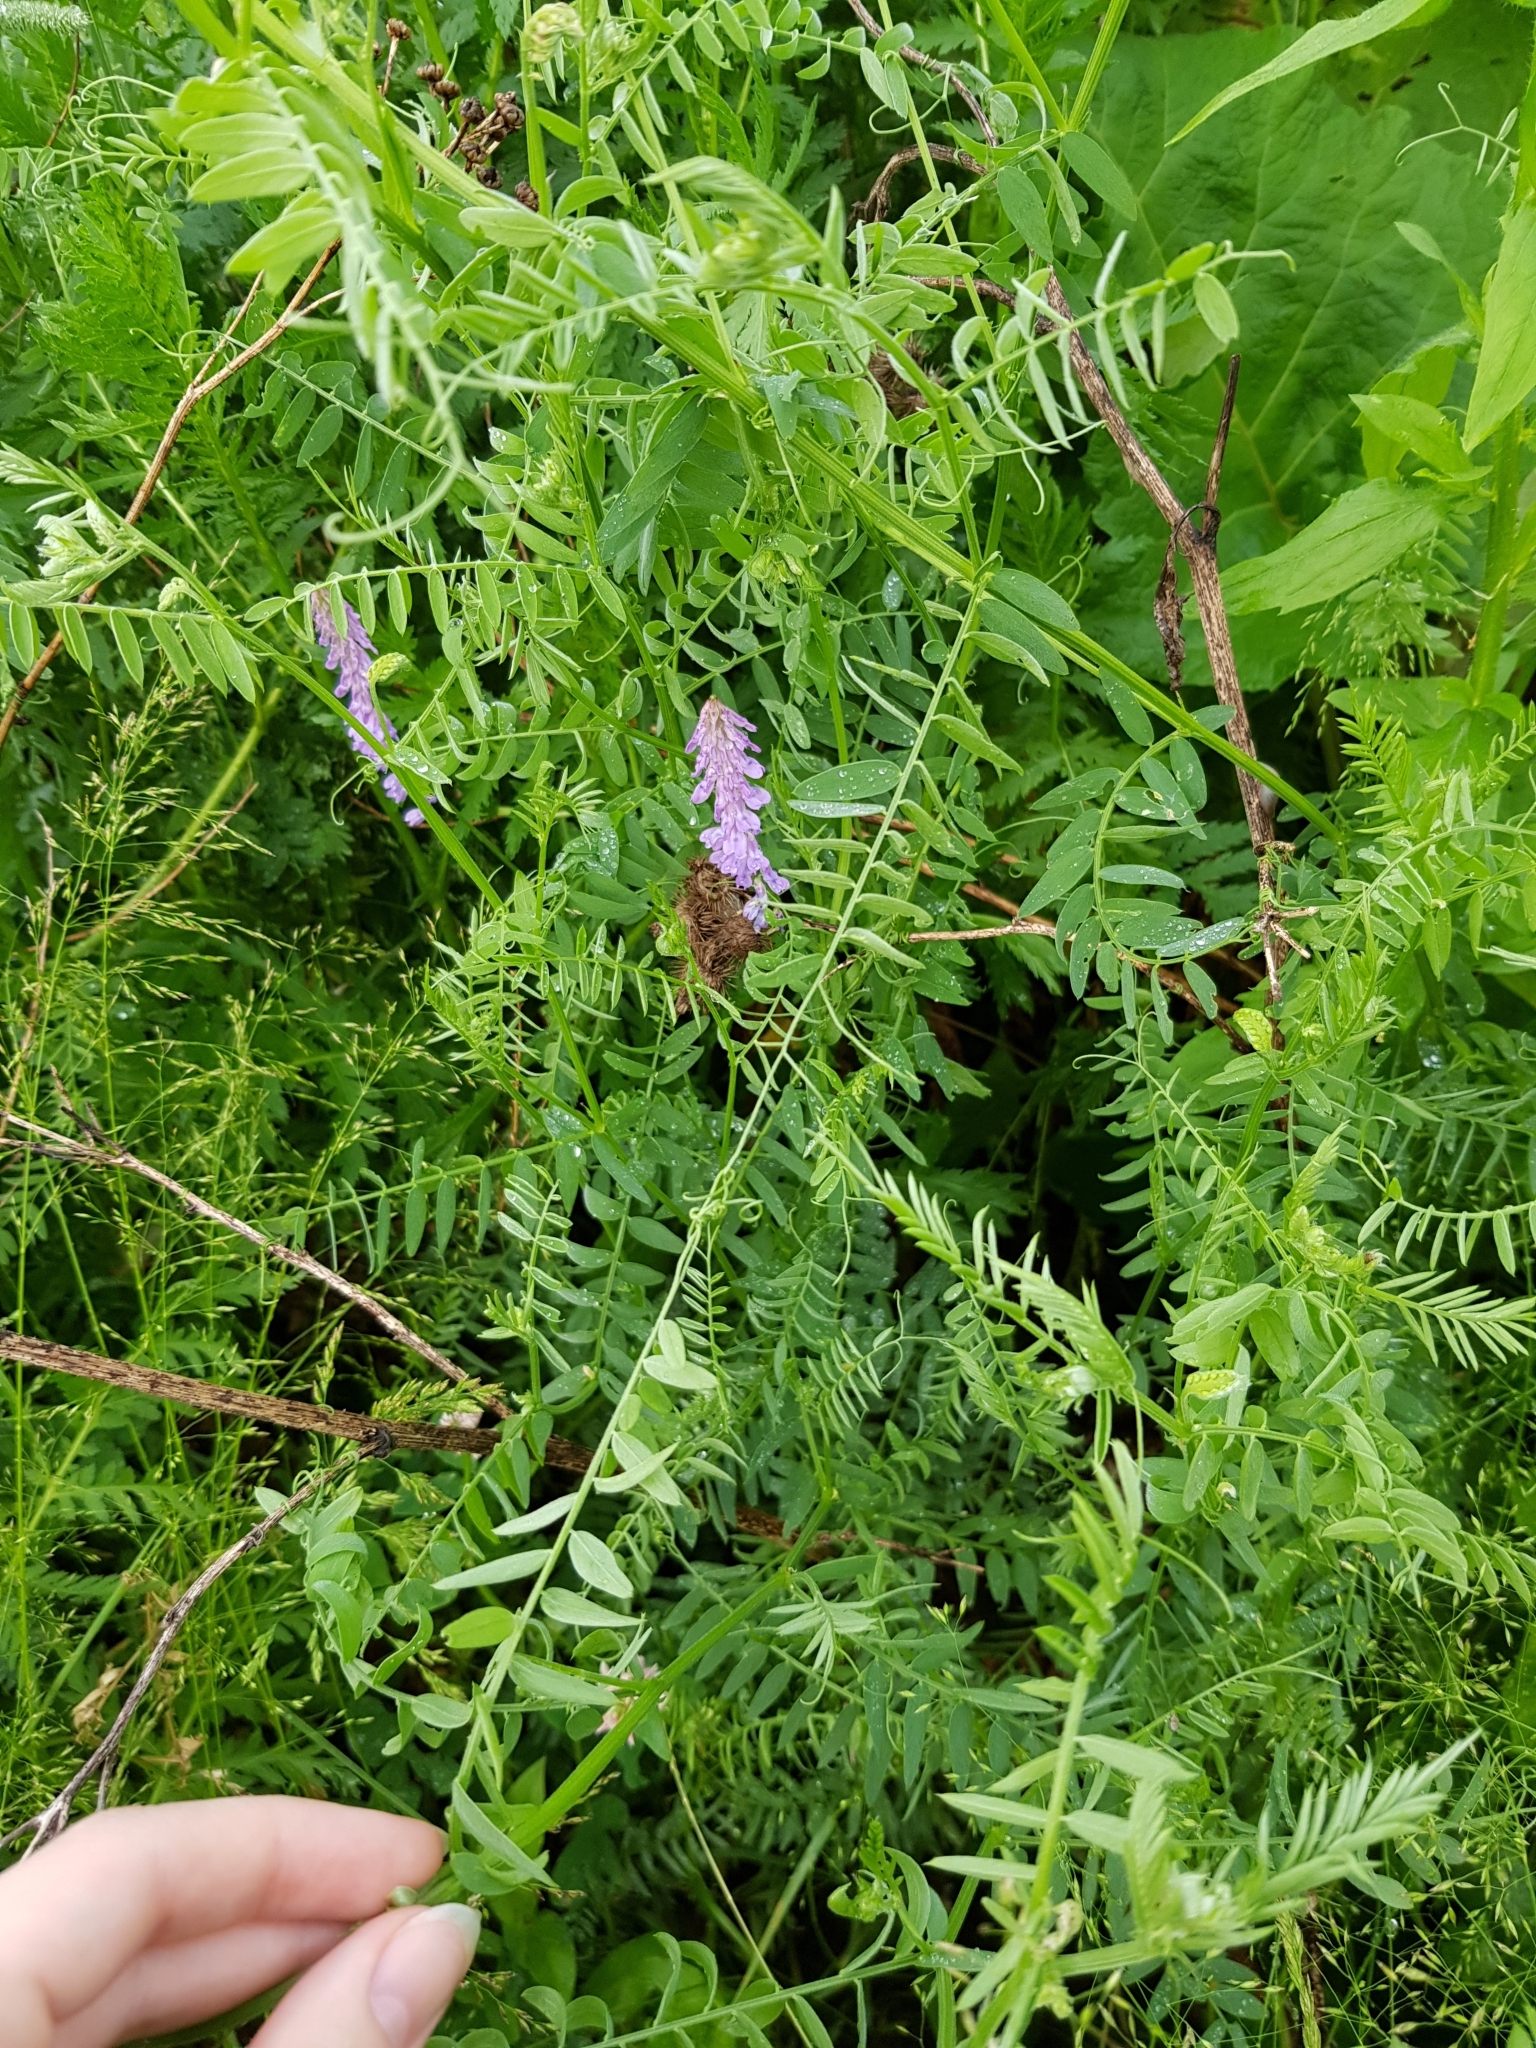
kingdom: Plantae
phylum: Tracheophyta
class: Magnoliopsida
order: Fabales
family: Fabaceae
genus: Vicia
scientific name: Vicia cracca
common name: Bird vetch
